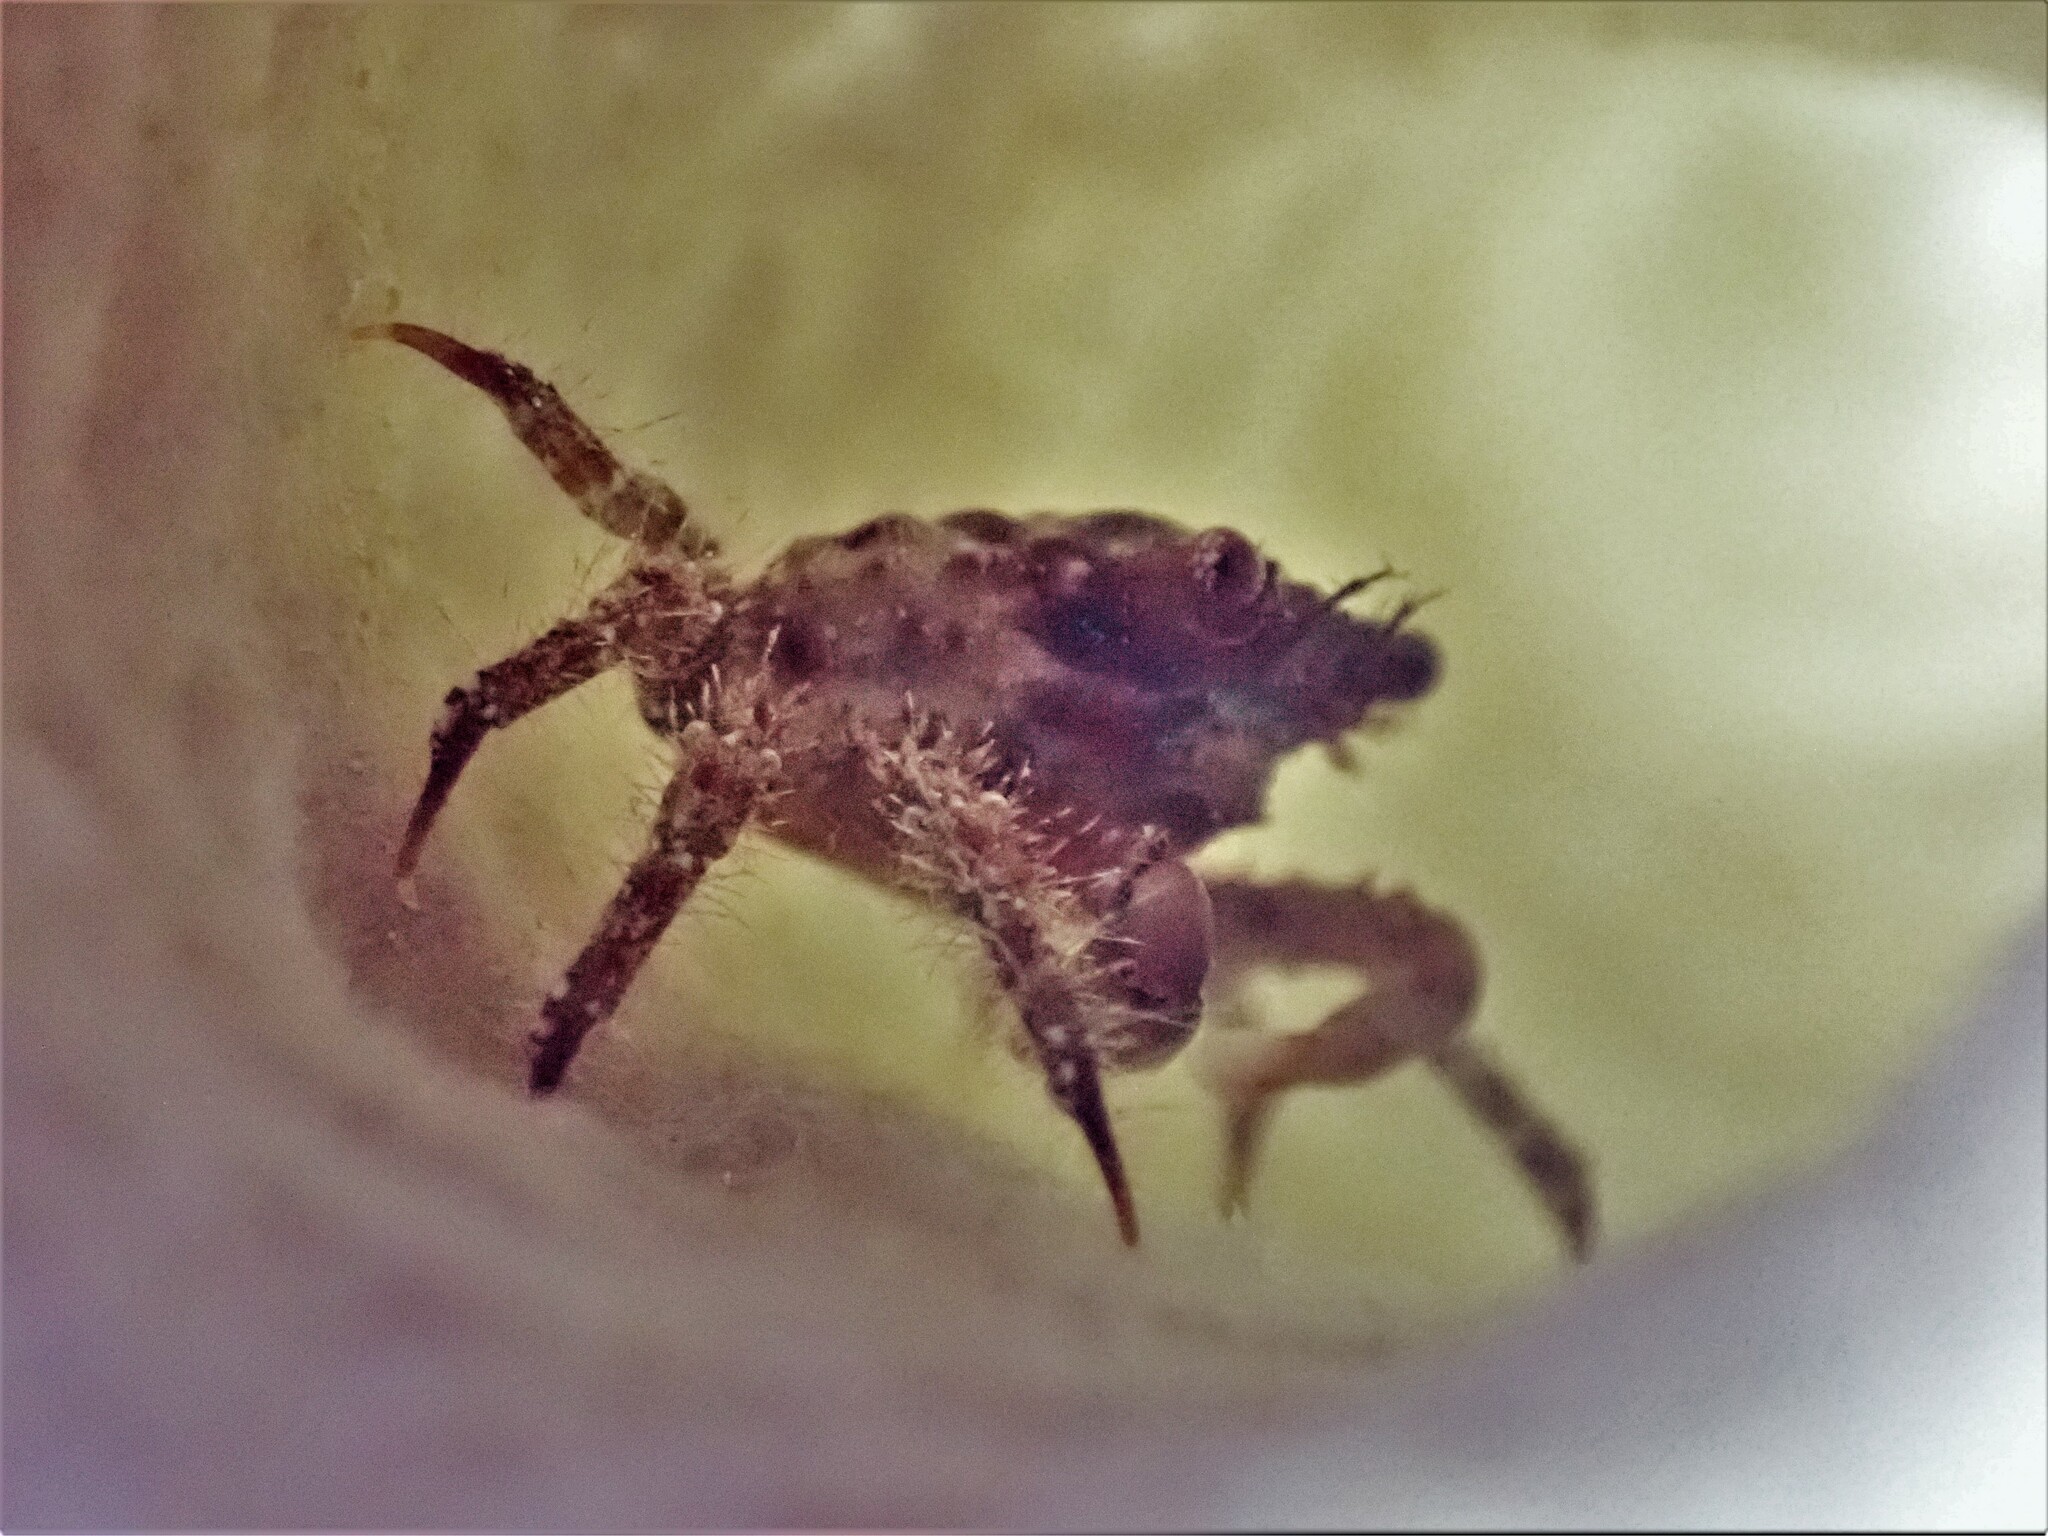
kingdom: Animalia
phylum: Arthropoda
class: Malacostraca
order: Decapoda
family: Mithracidae
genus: Mithraculus
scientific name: Mithraculus forceps
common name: Red-ridged clinging crab
